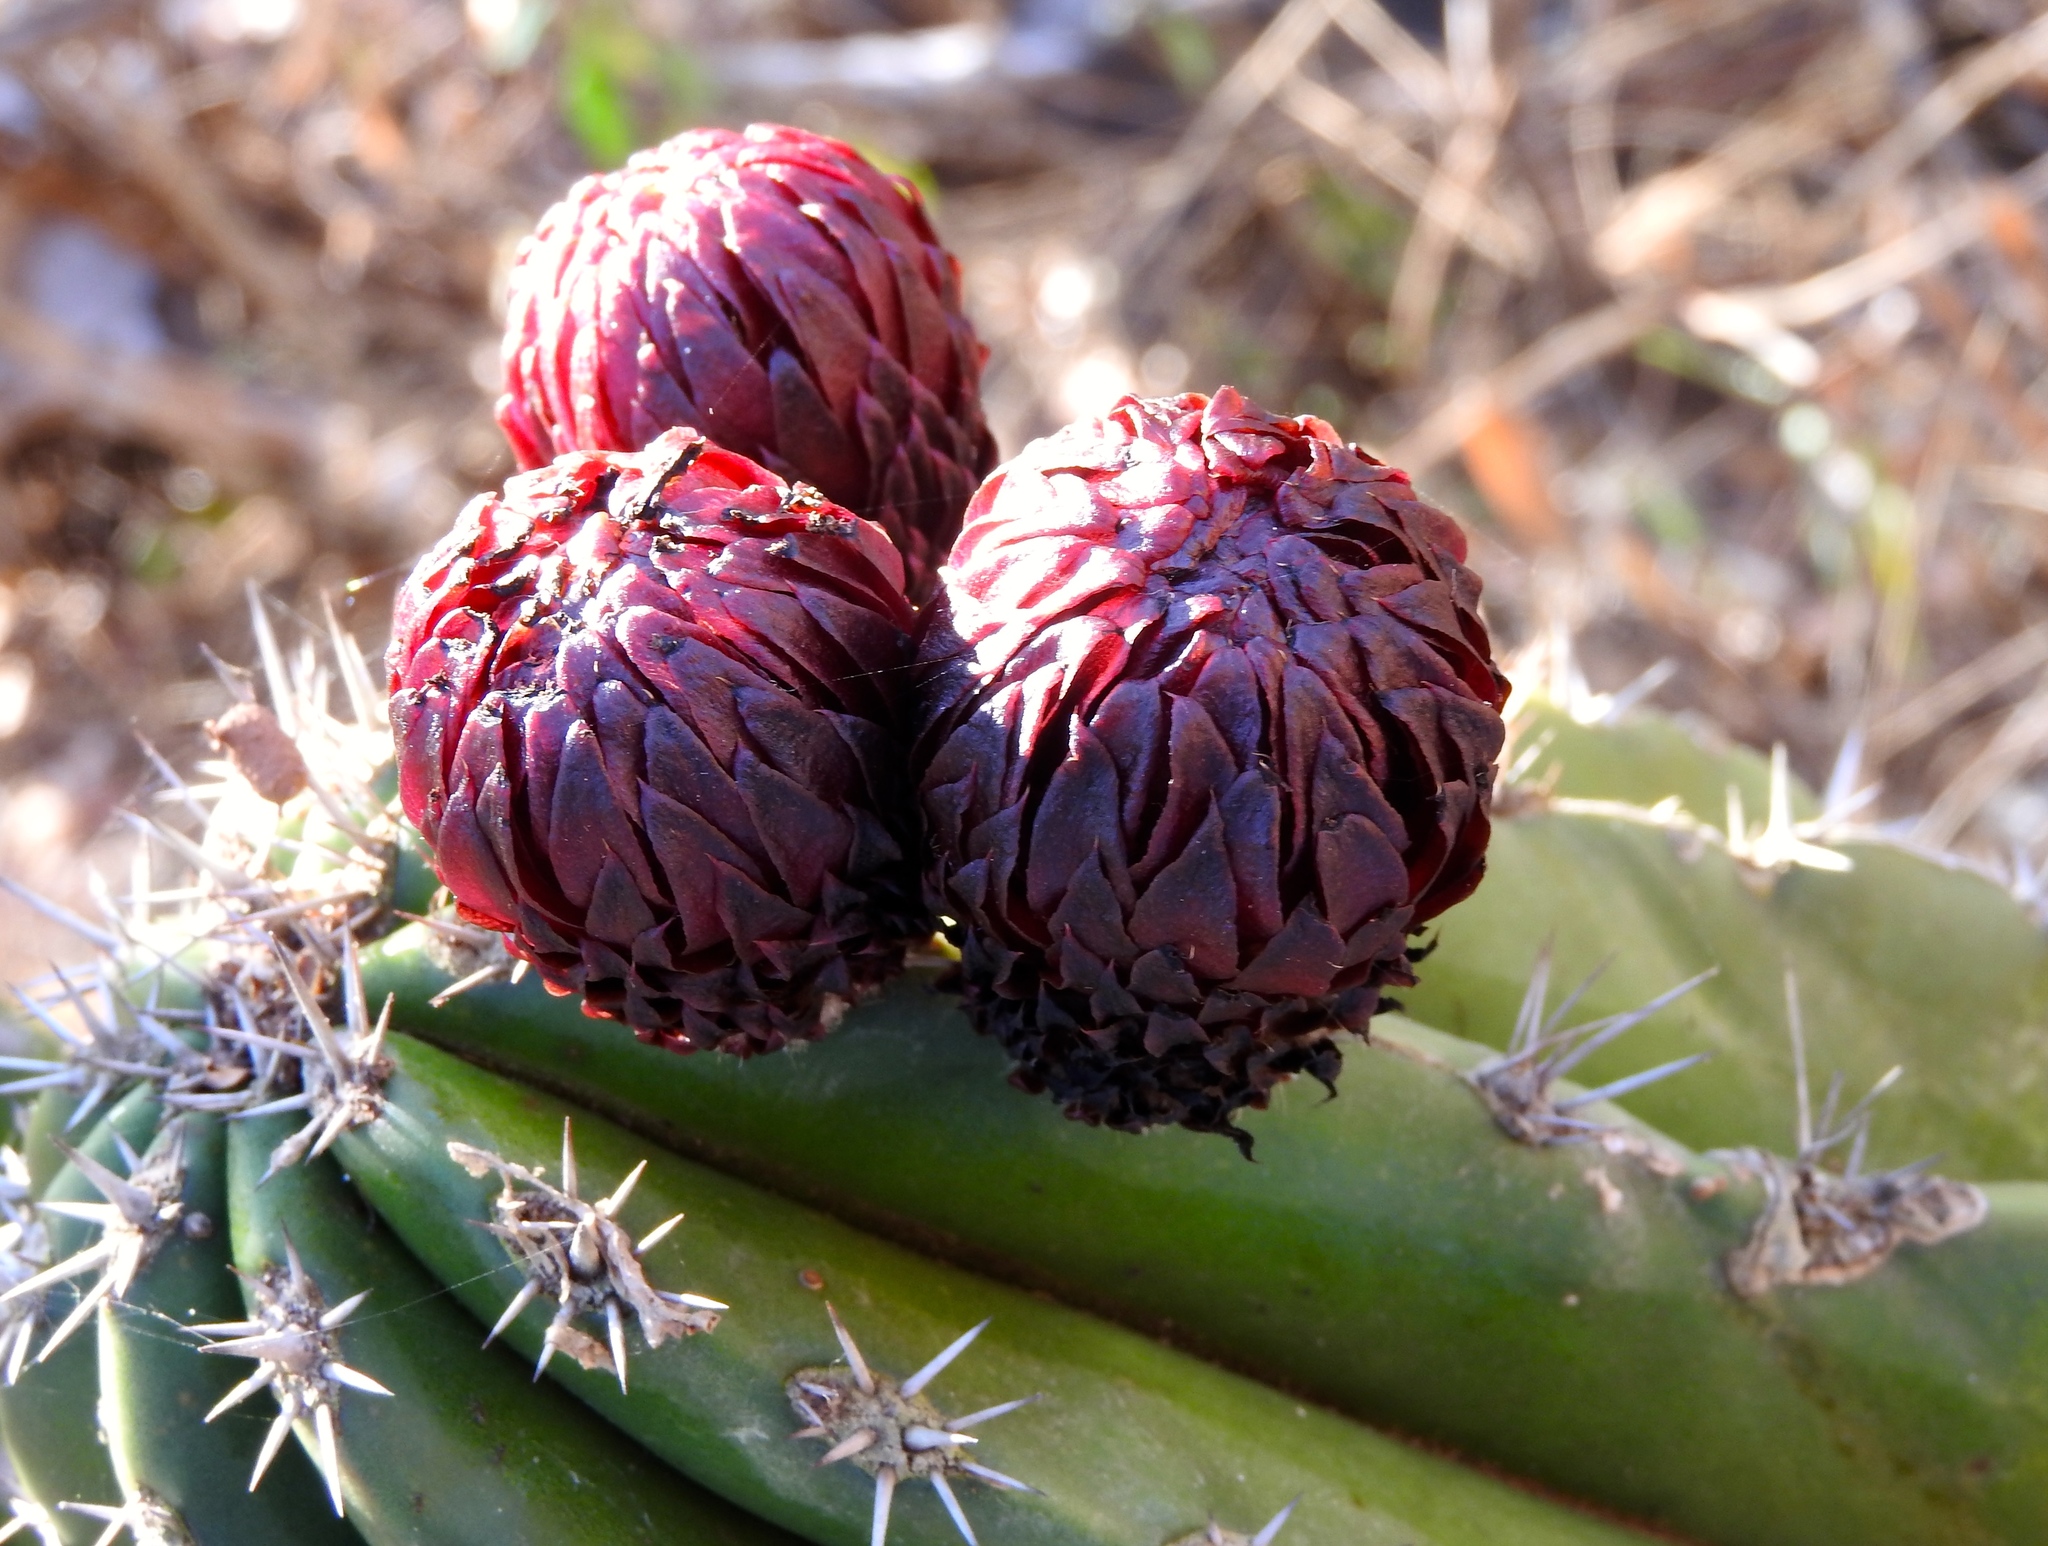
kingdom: Plantae
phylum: Tracheophyta
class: Magnoliopsida
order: Caryophyllales
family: Cactaceae
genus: Pachycereus
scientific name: Pachycereus pecten-aboriginum
